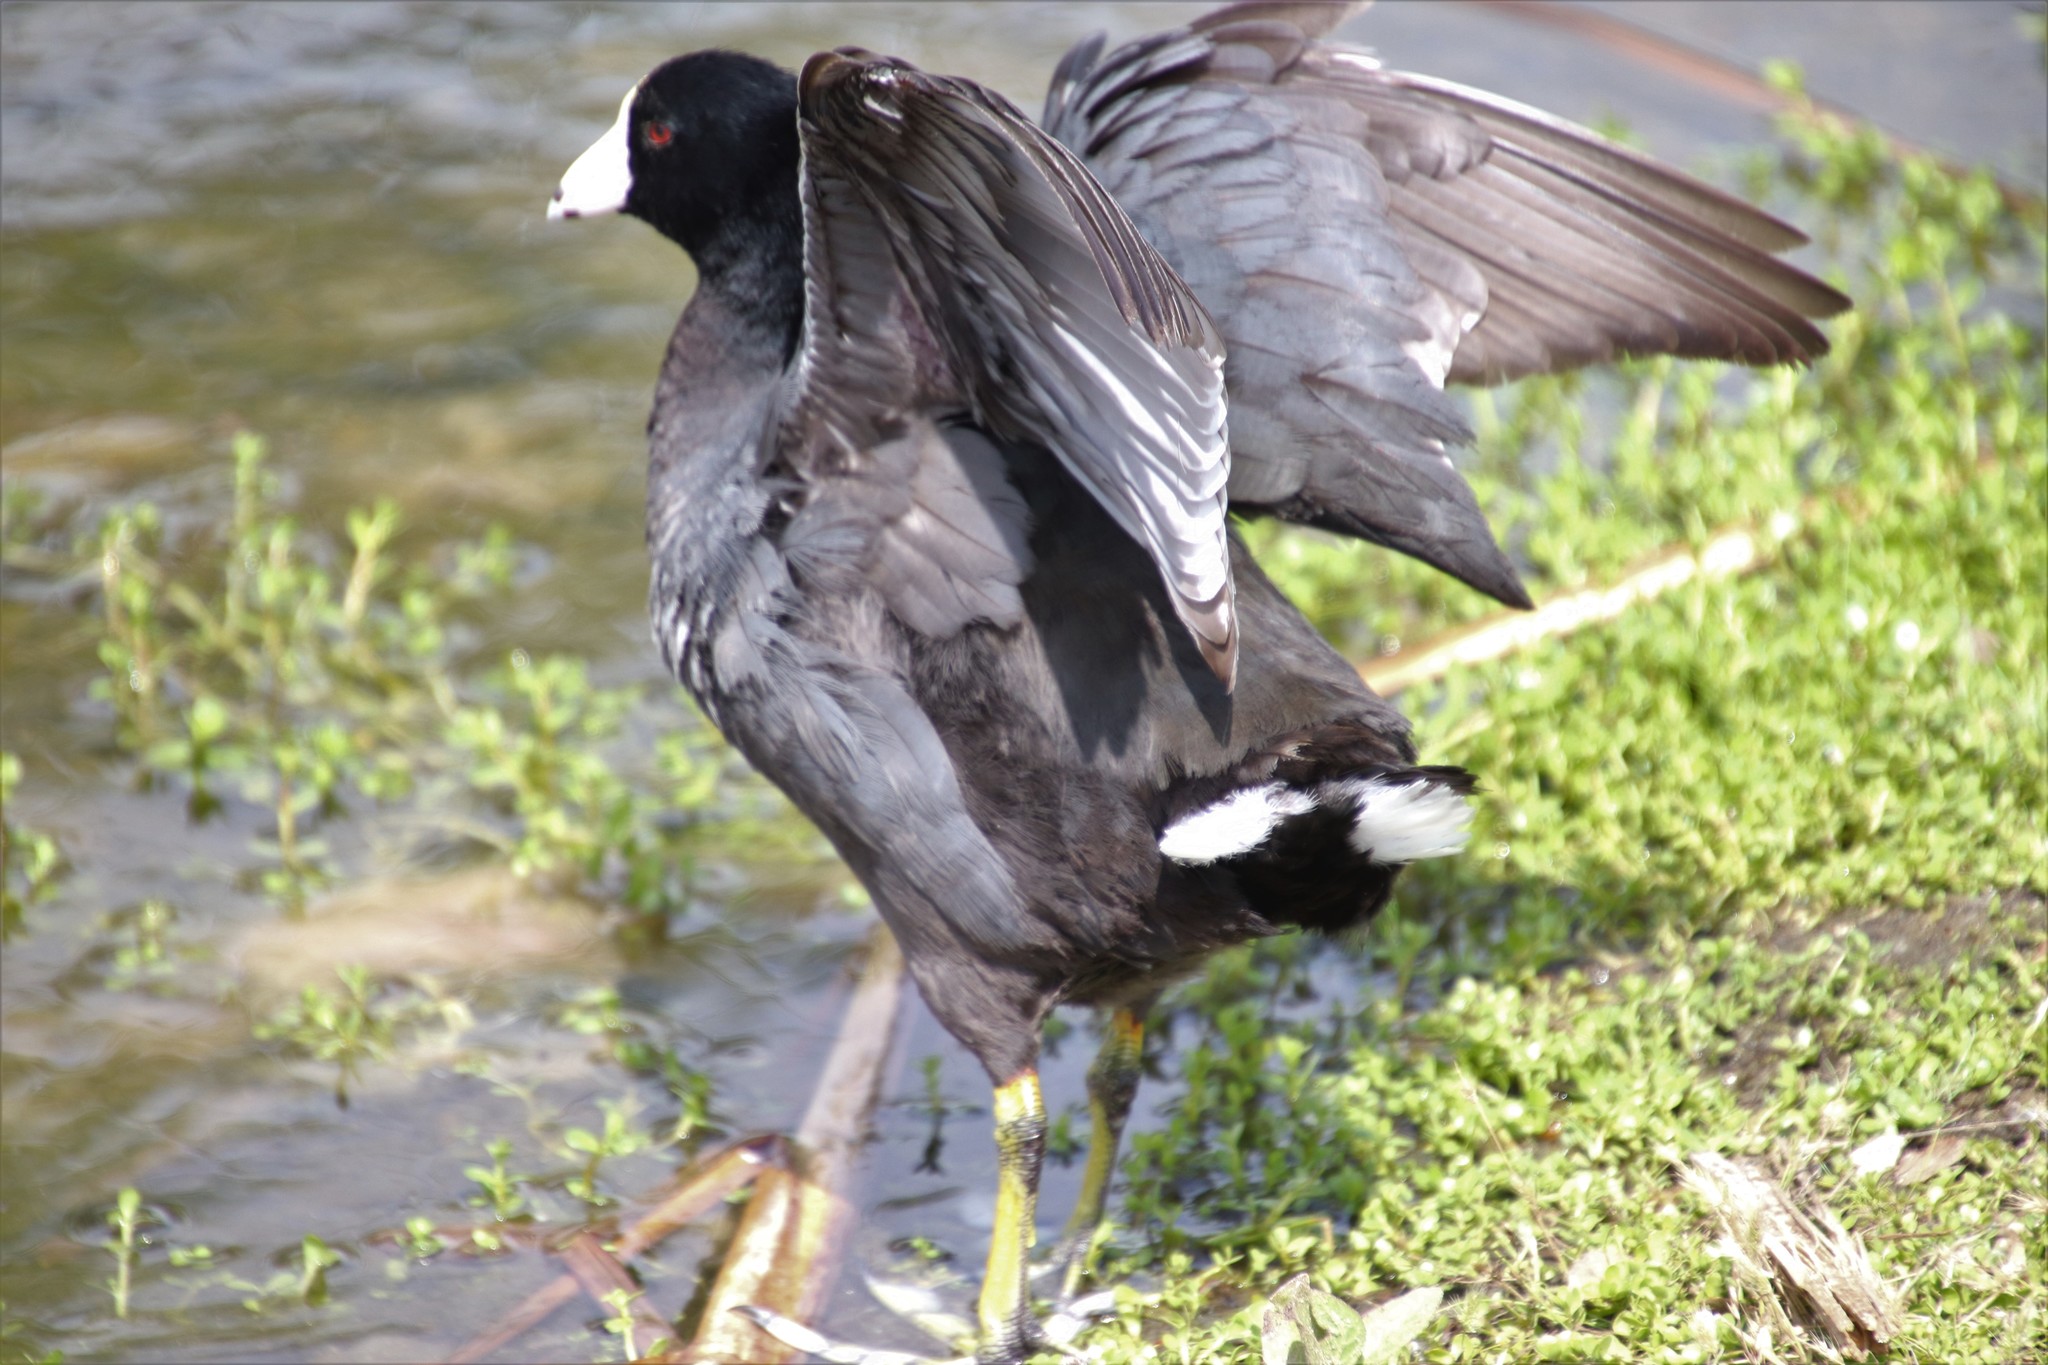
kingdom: Animalia
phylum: Chordata
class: Aves
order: Gruiformes
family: Rallidae
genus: Fulica
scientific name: Fulica americana
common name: American coot
